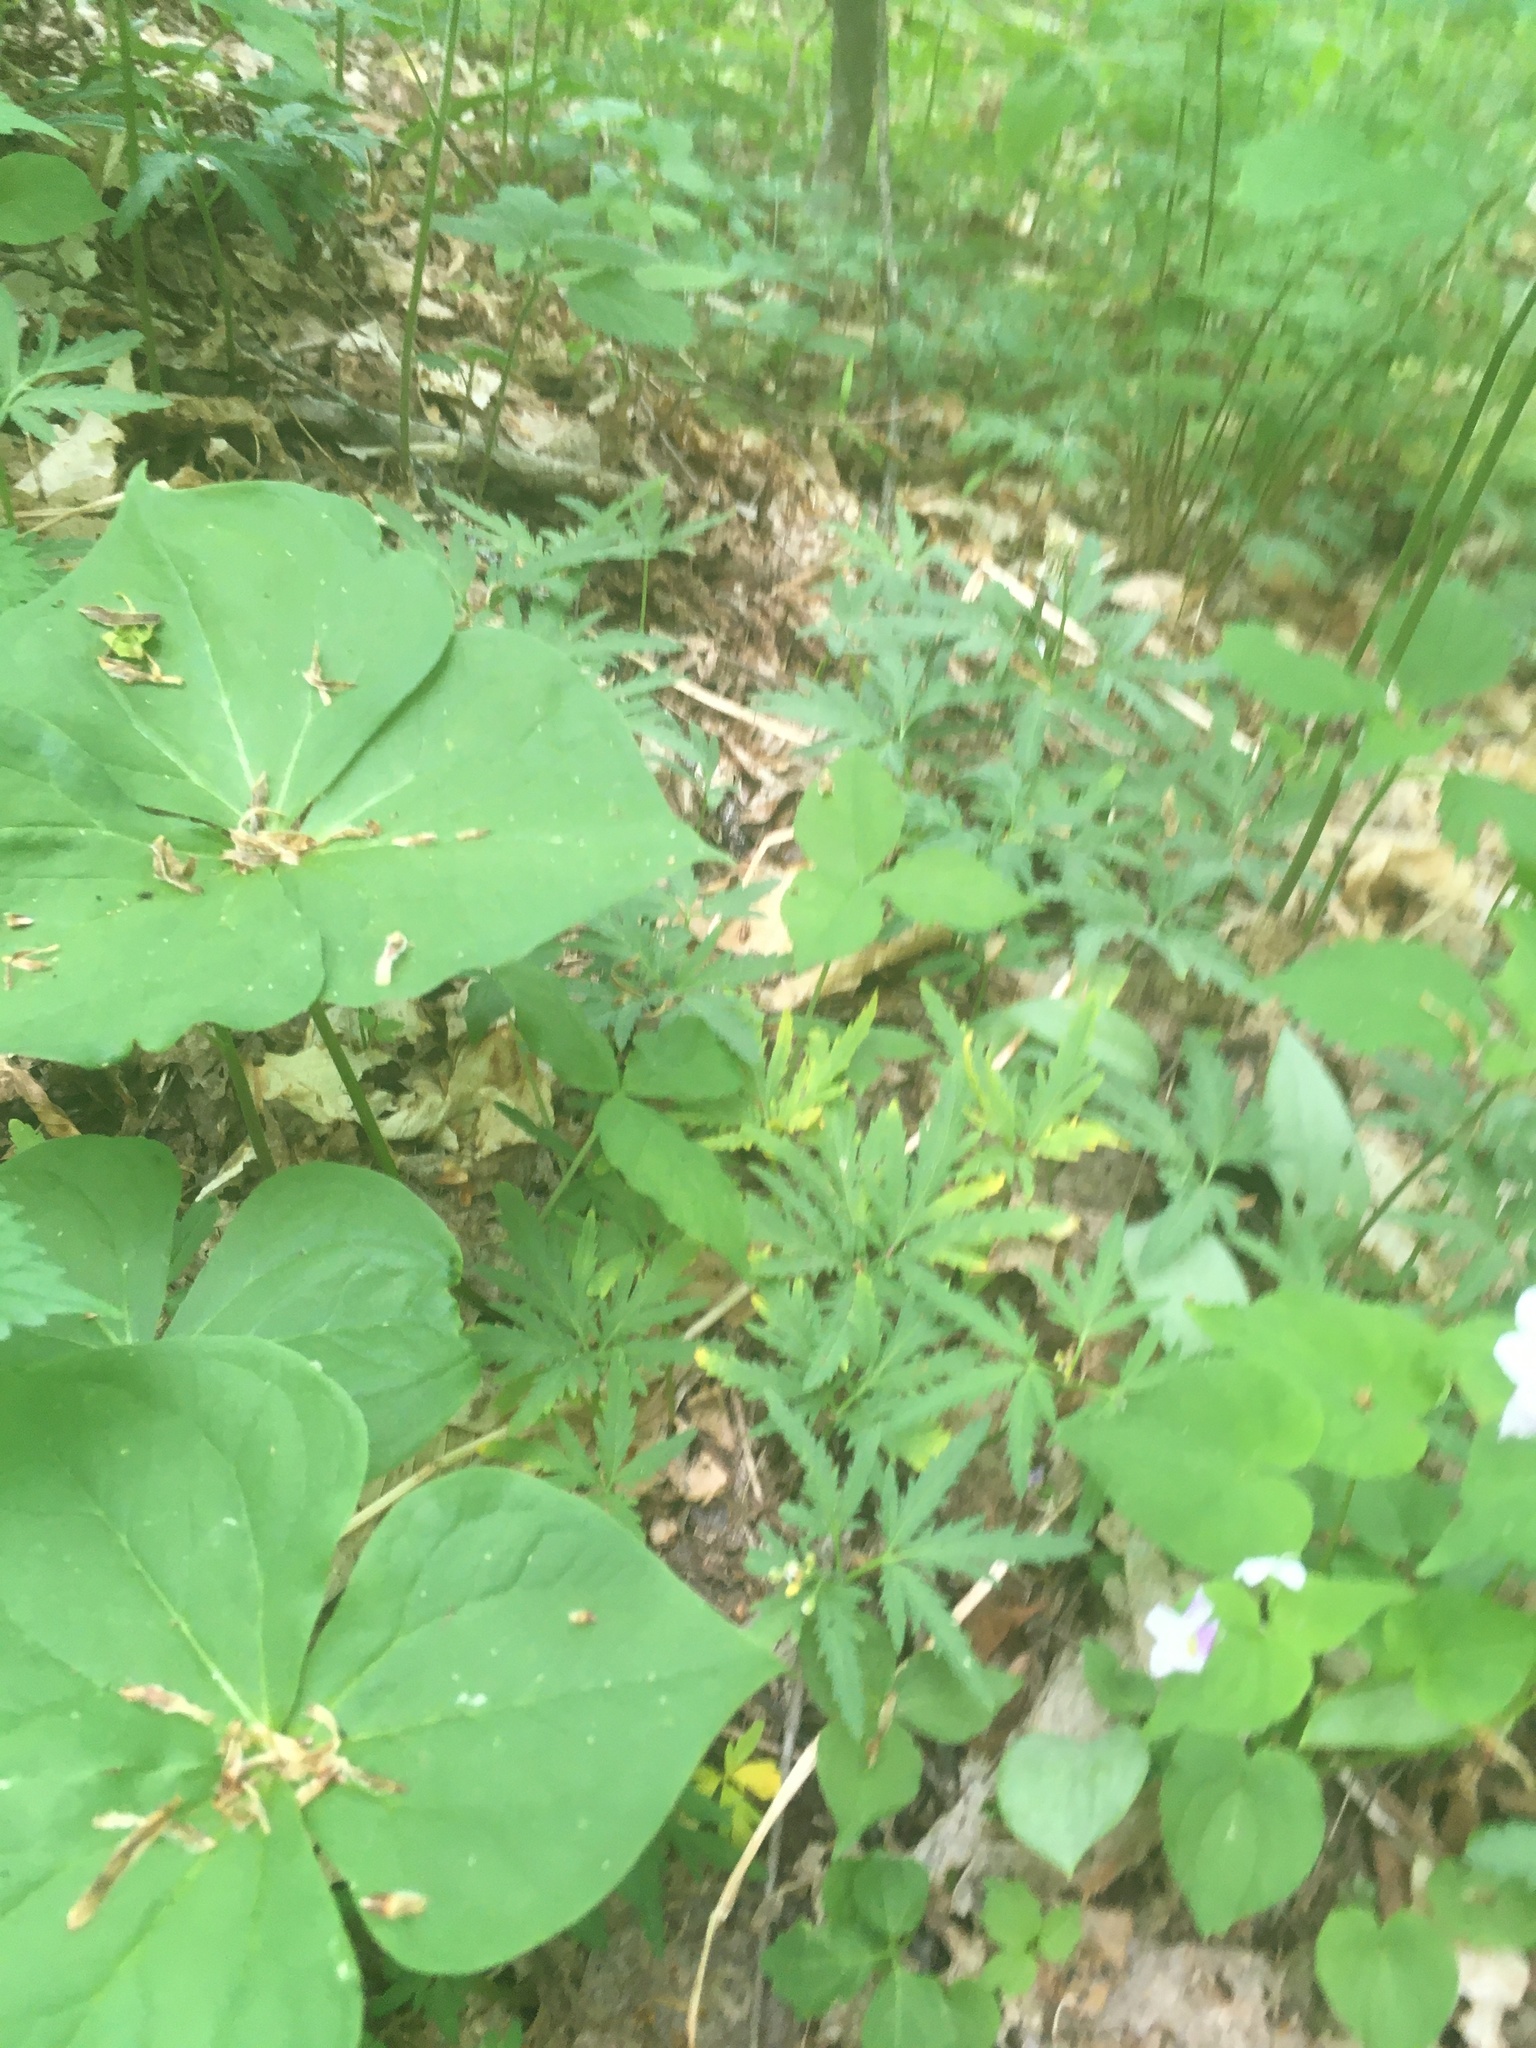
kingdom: Plantae
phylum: Tracheophyta
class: Magnoliopsida
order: Brassicales
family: Brassicaceae
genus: Cardamine
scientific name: Cardamine concatenata
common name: Cut-leaf toothcup
